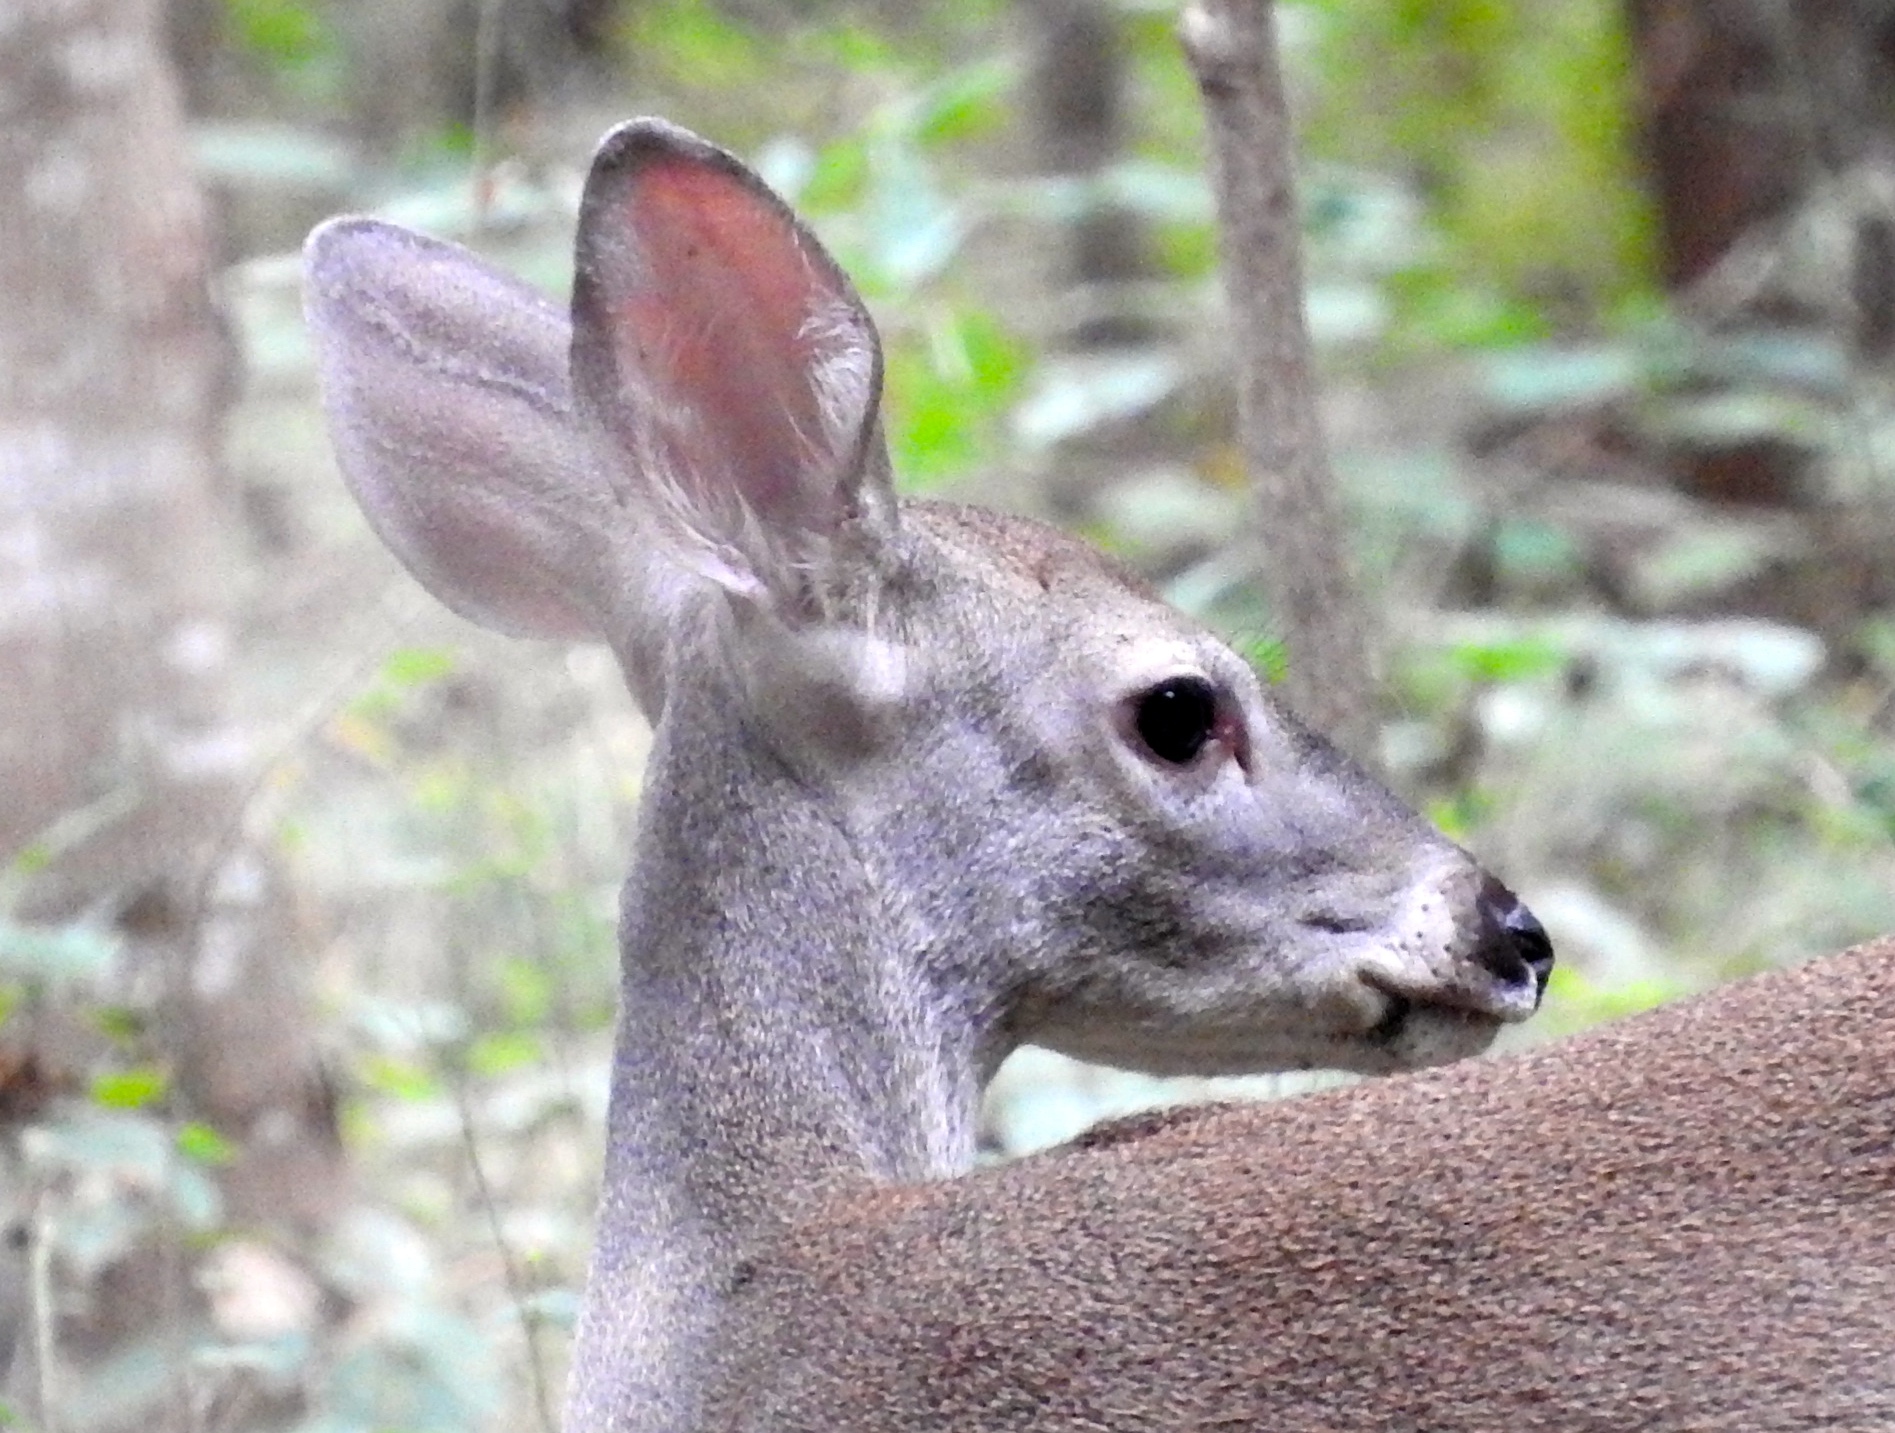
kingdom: Animalia
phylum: Chordata
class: Mammalia
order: Artiodactyla
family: Cervidae
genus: Odocoileus
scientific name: Odocoileus virginianus
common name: White-tailed deer
